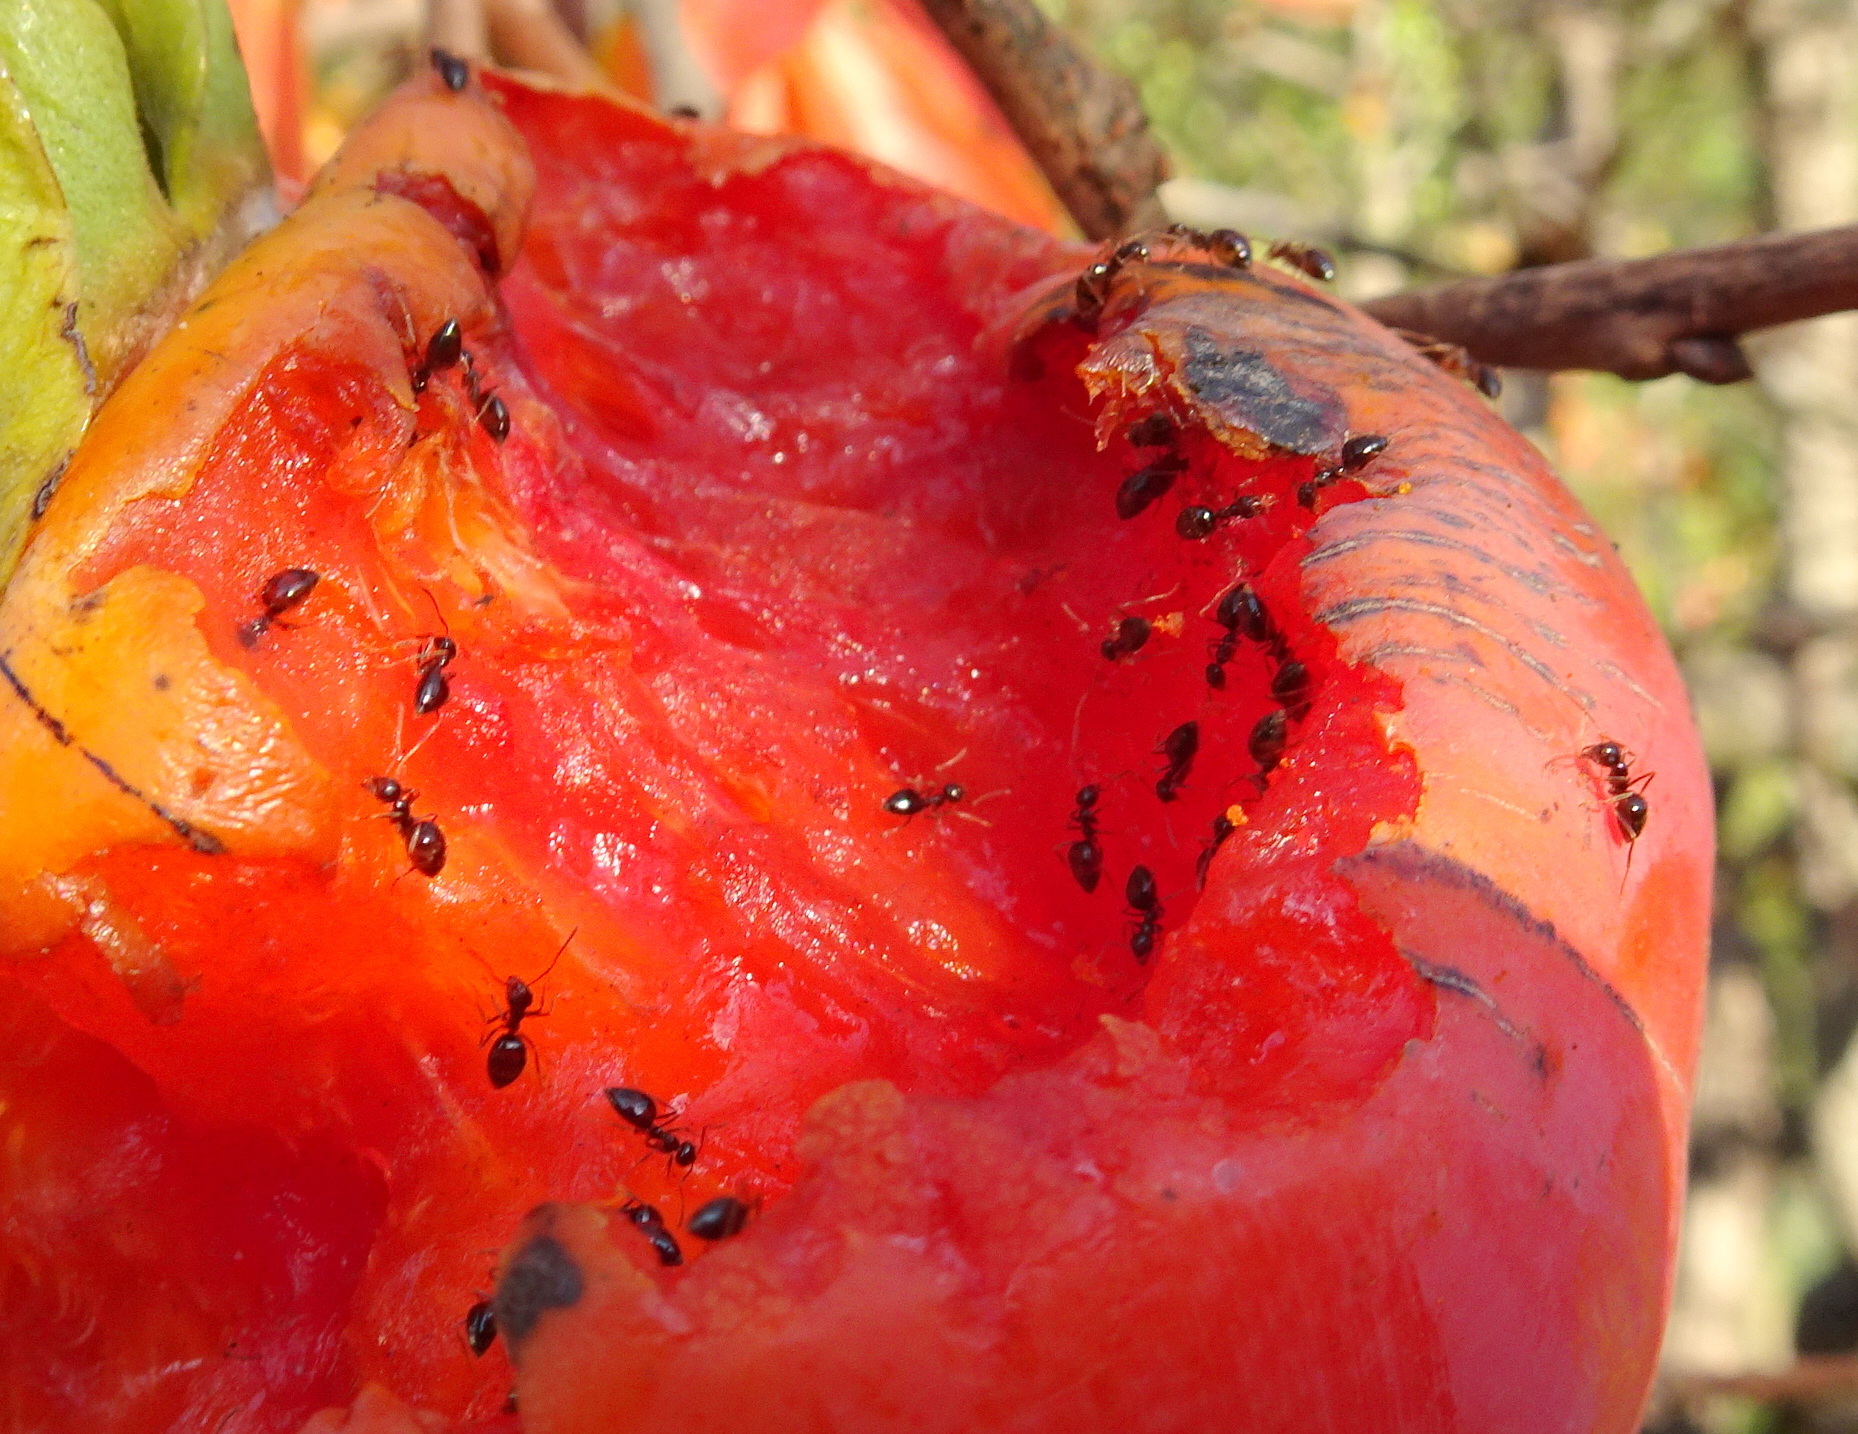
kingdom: Animalia
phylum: Arthropoda
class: Insecta
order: Hymenoptera
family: Formicidae
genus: Prenolepis
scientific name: Prenolepis imparis
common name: Small honey ant
